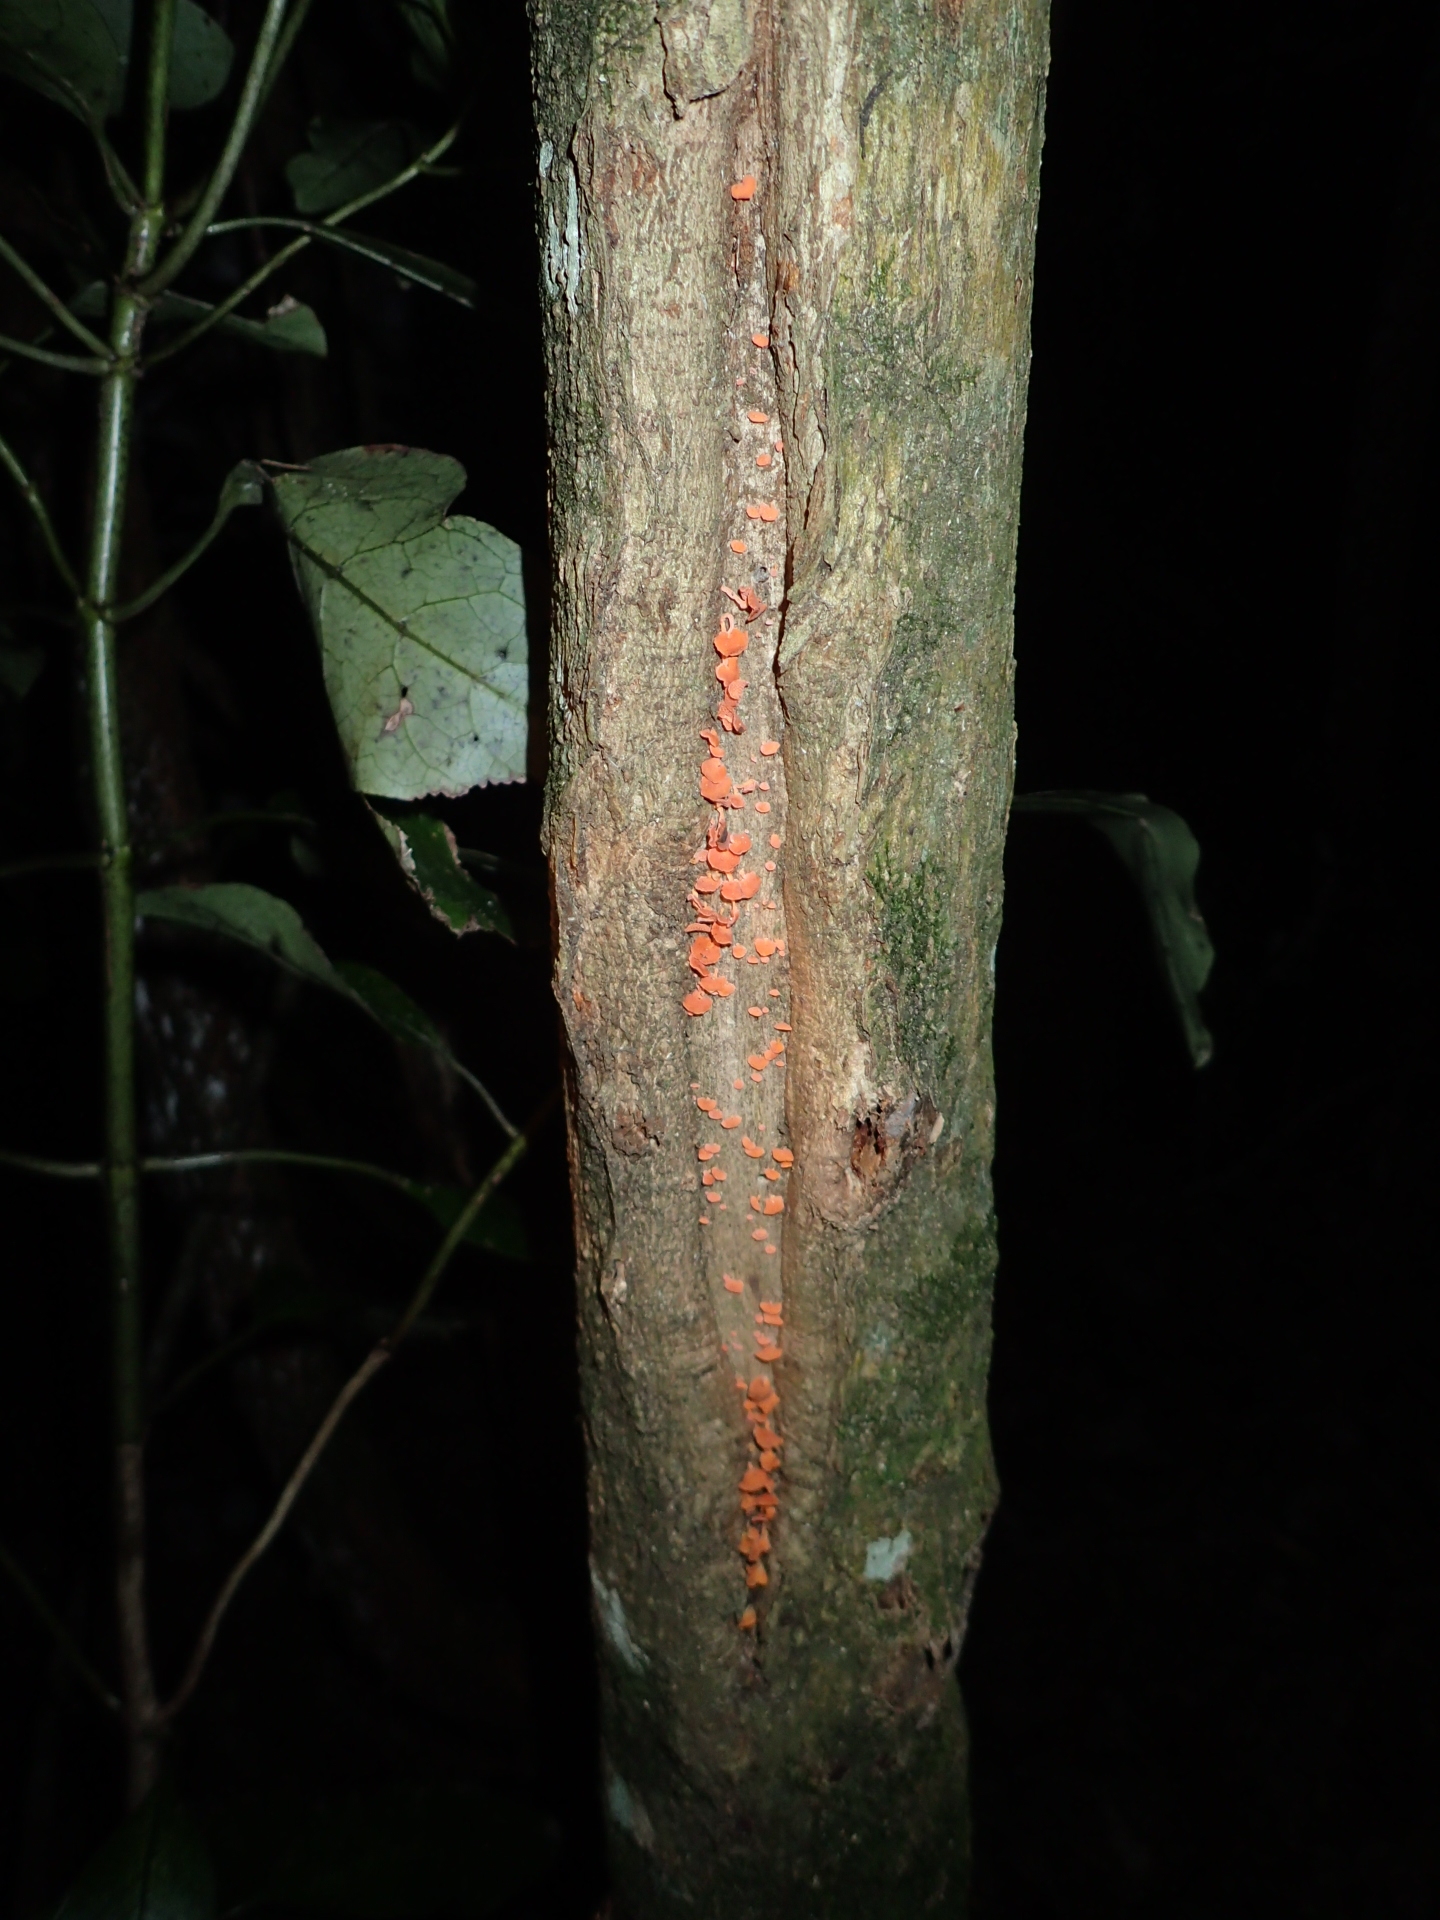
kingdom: Fungi
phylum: Basidiomycota
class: Agaricomycetes
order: Agaricales
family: Mycenaceae
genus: Favolaschia
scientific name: Favolaschia claudopus
